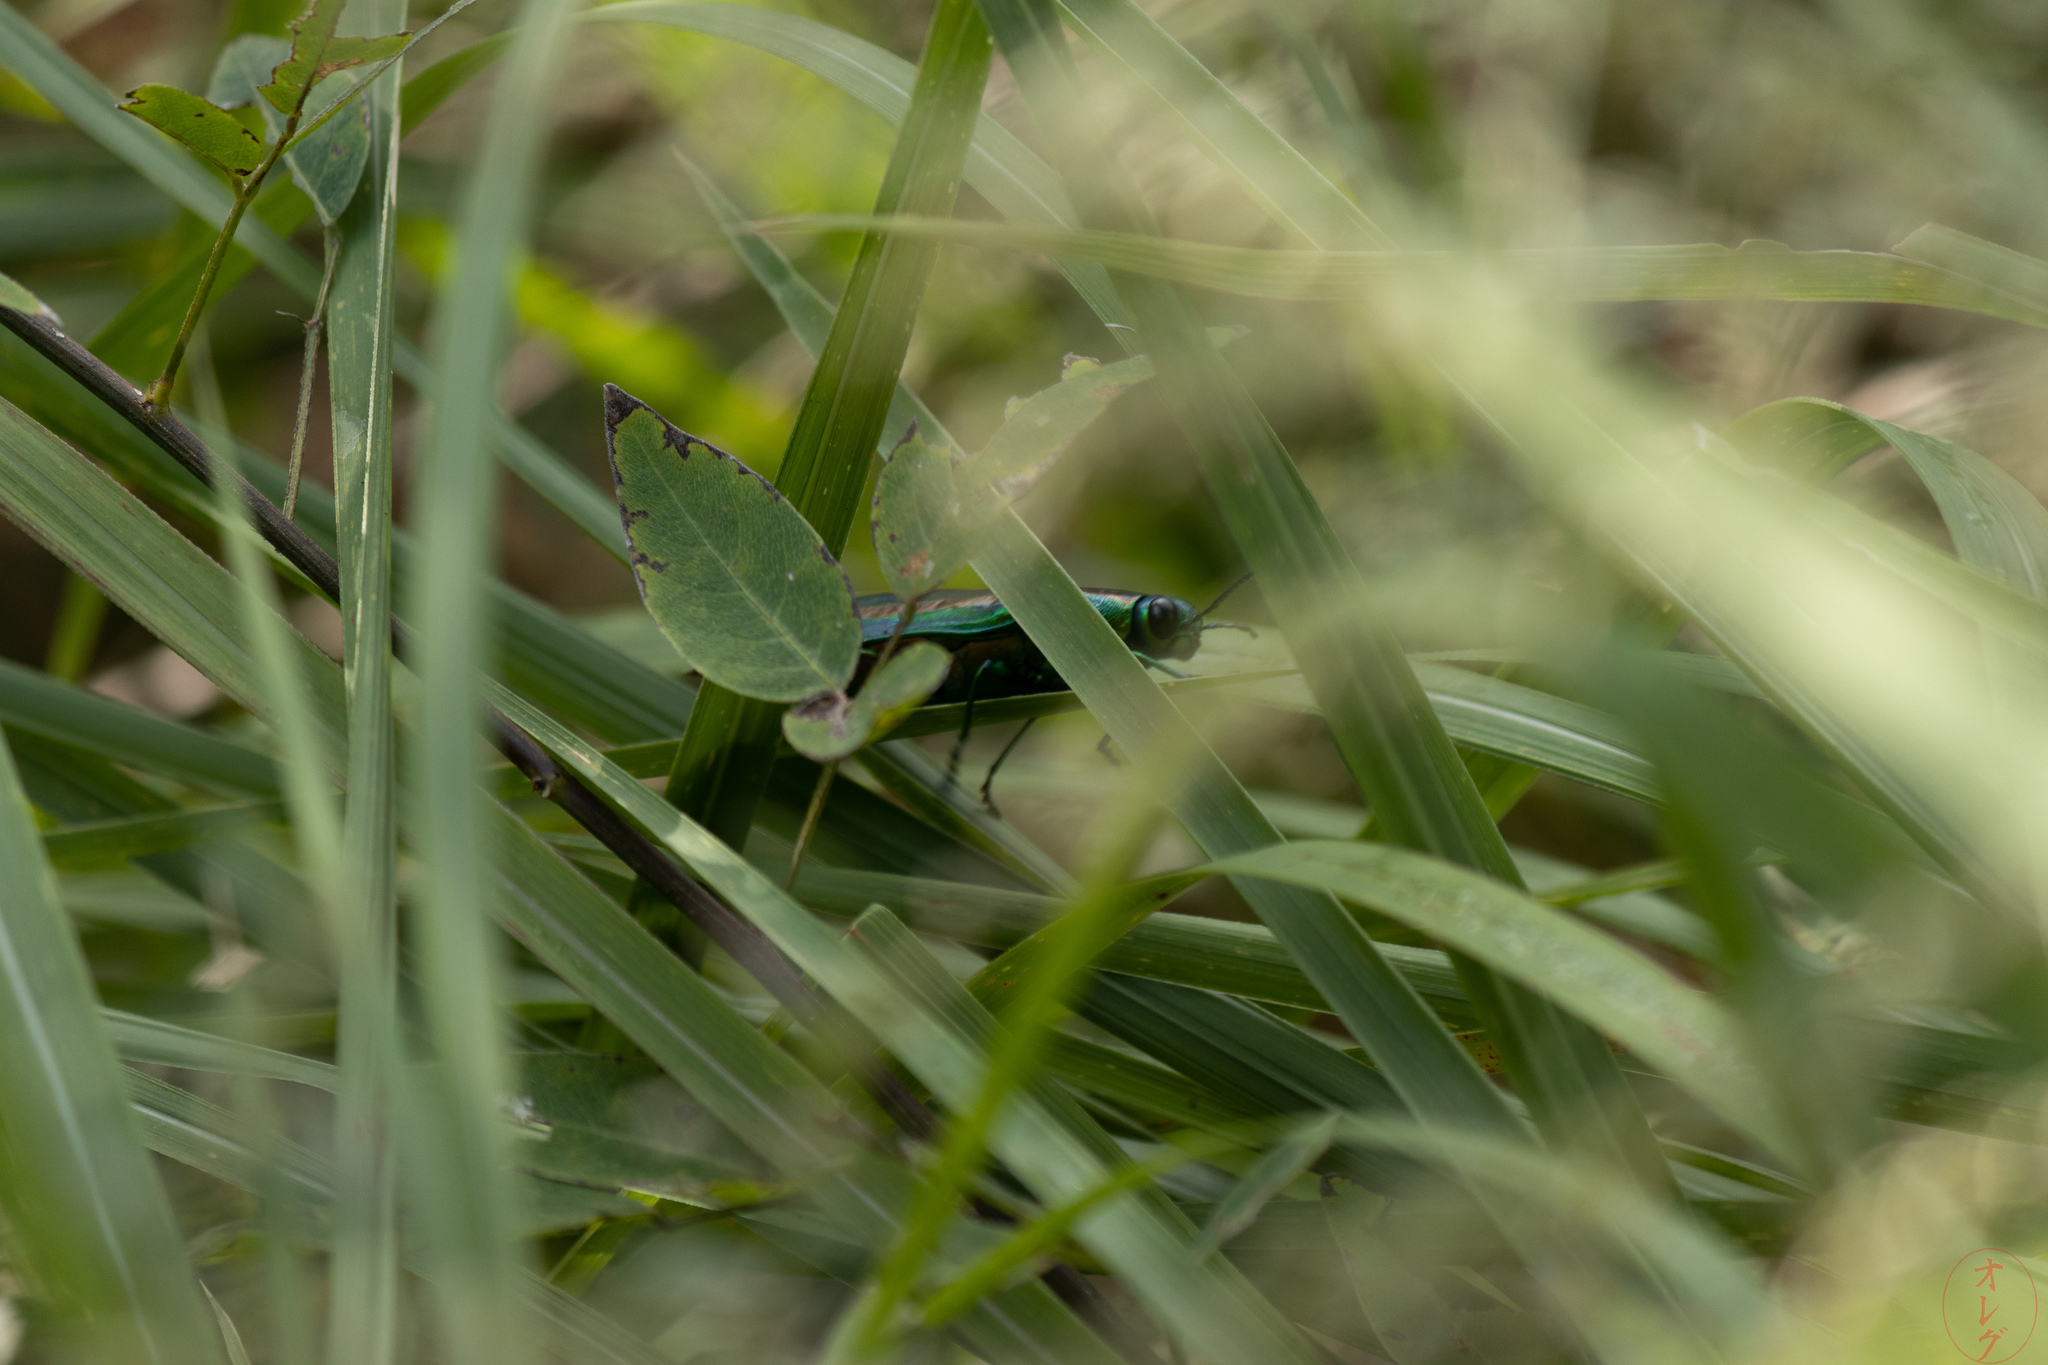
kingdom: Animalia
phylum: Arthropoda
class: Insecta
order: Coleoptera
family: Buprestidae
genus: Chrysochroa
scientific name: Chrysochroa fulgidissima
